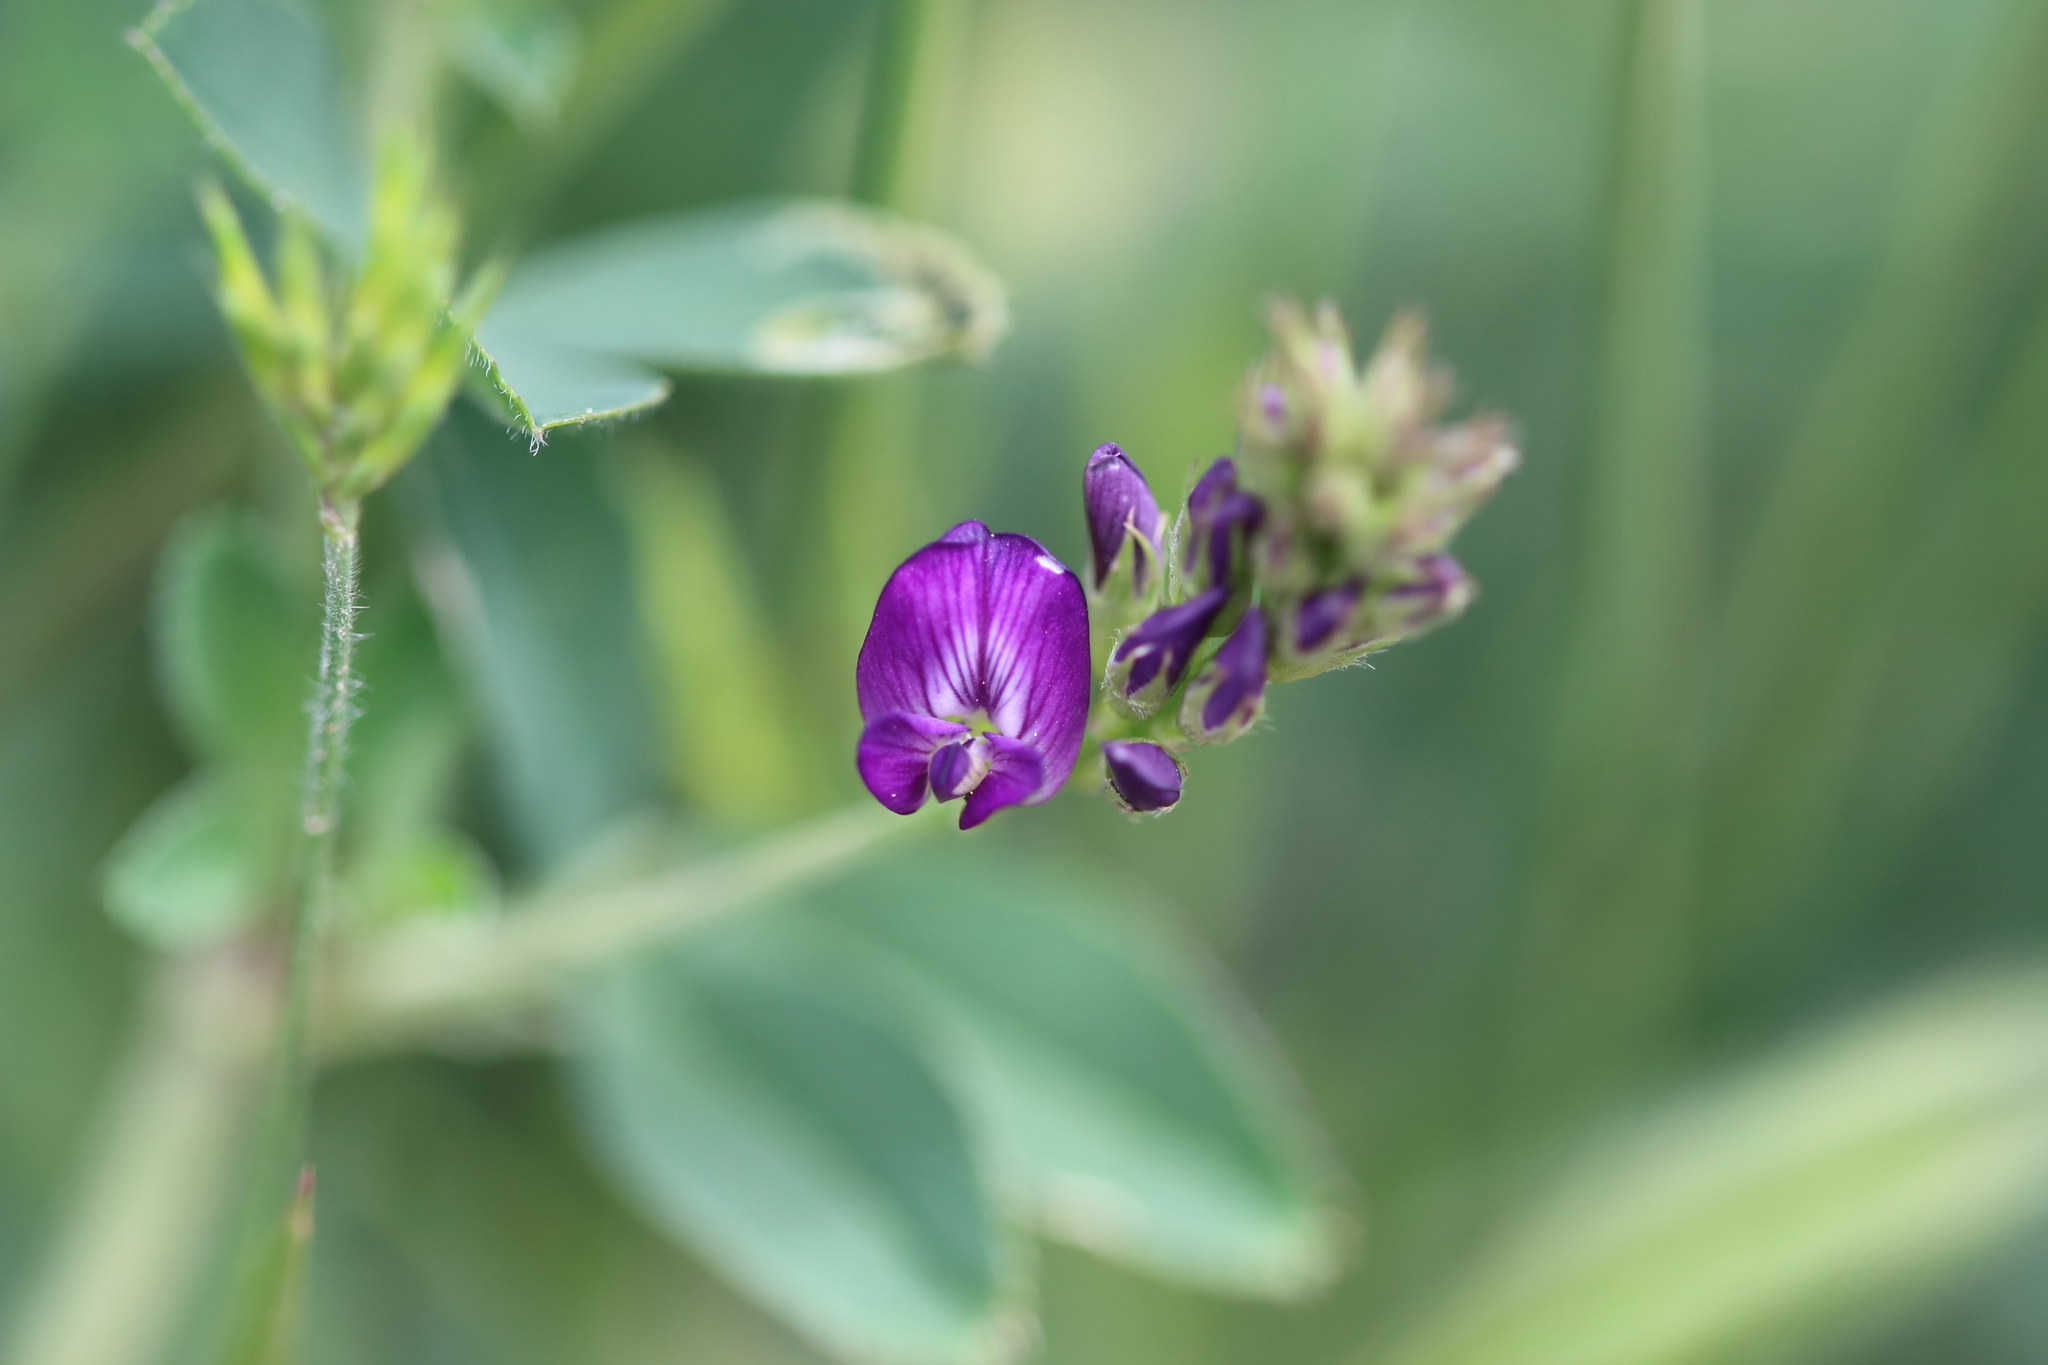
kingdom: Plantae
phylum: Tracheophyta
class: Magnoliopsida
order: Fabales
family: Fabaceae
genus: Medicago
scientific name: Medicago sativa
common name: Alfalfa
